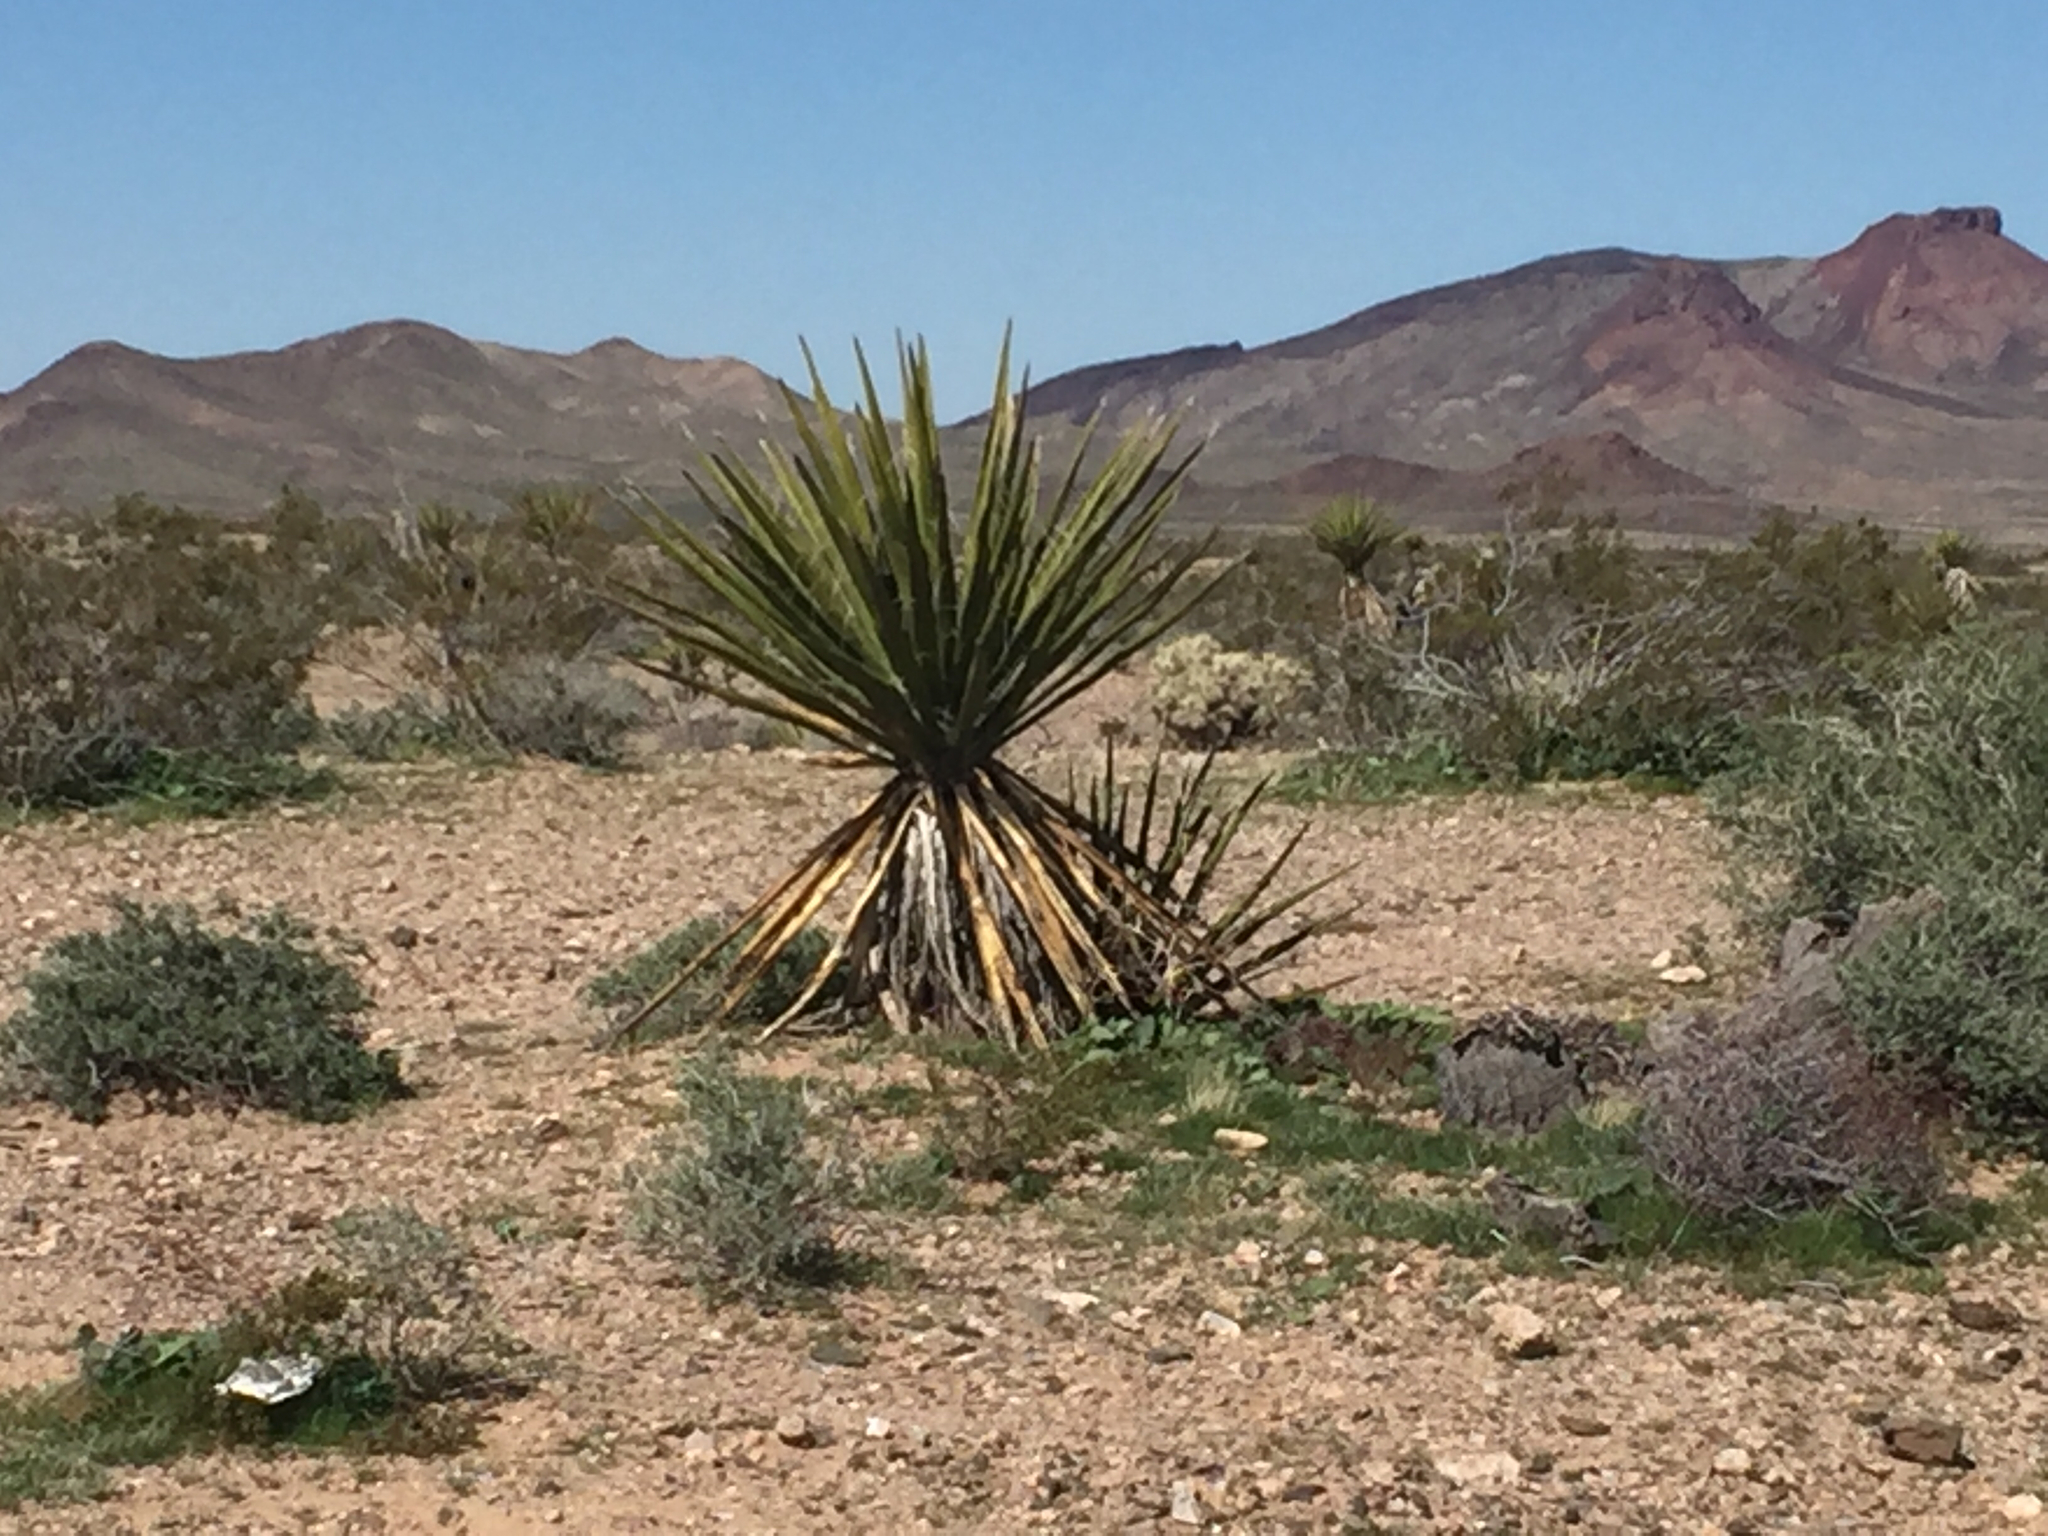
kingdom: Plantae
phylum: Tracheophyta
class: Liliopsida
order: Asparagales
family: Asparagaceae
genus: Yucca
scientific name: Yucca schidigera
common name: Mojave yucca
